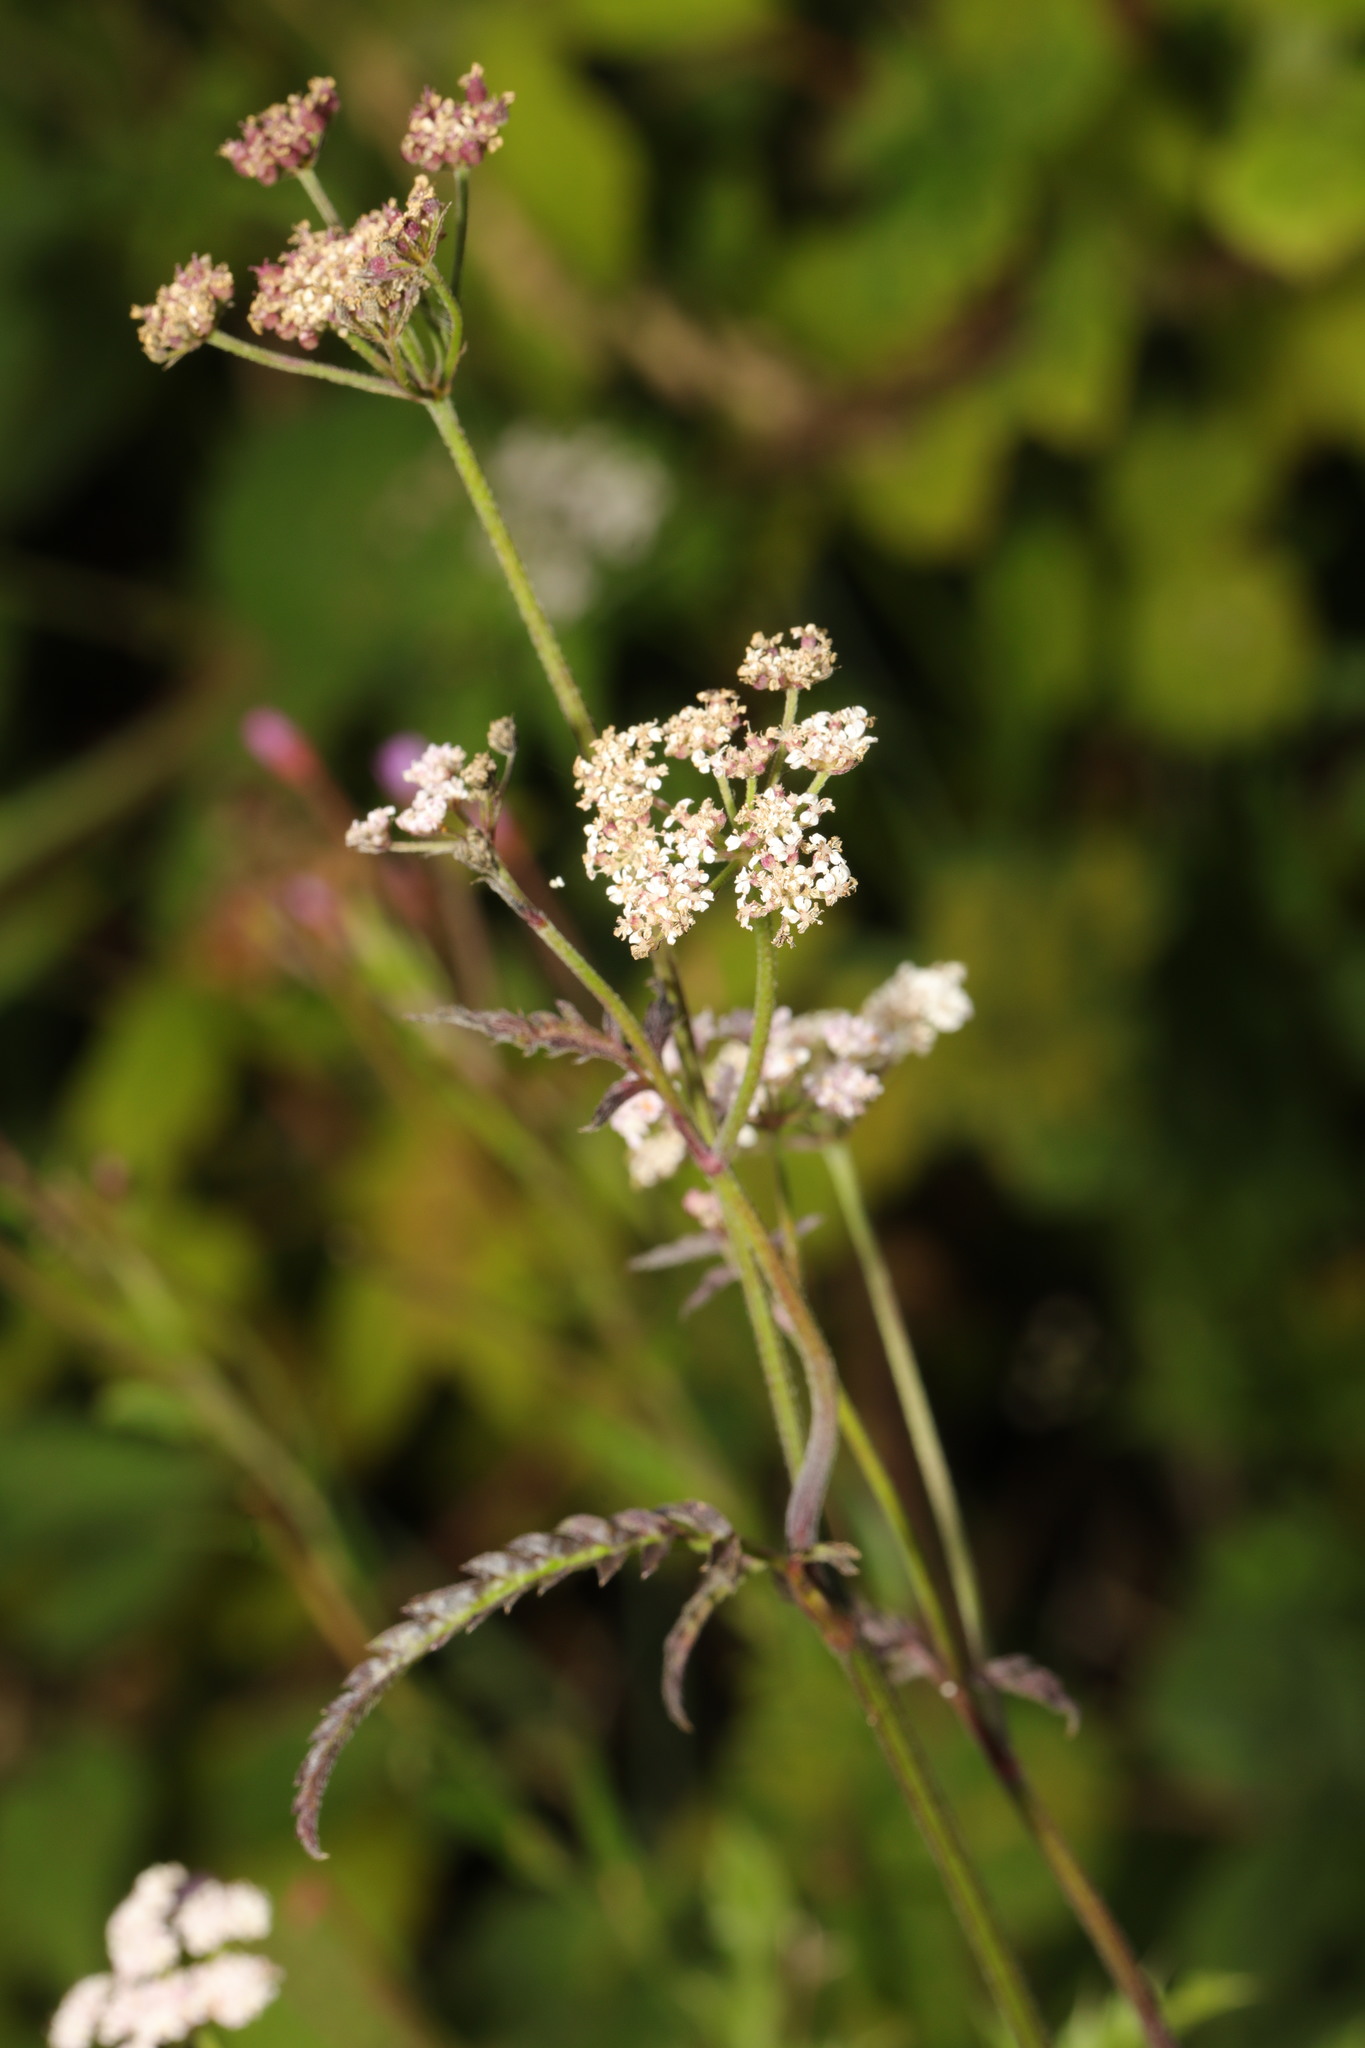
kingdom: Plantae
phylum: Tracheophyta
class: Magnoliopsida
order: Apiales
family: Apiaceae
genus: Torilis
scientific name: Torilis japonica
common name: Upright hedge-parsley
